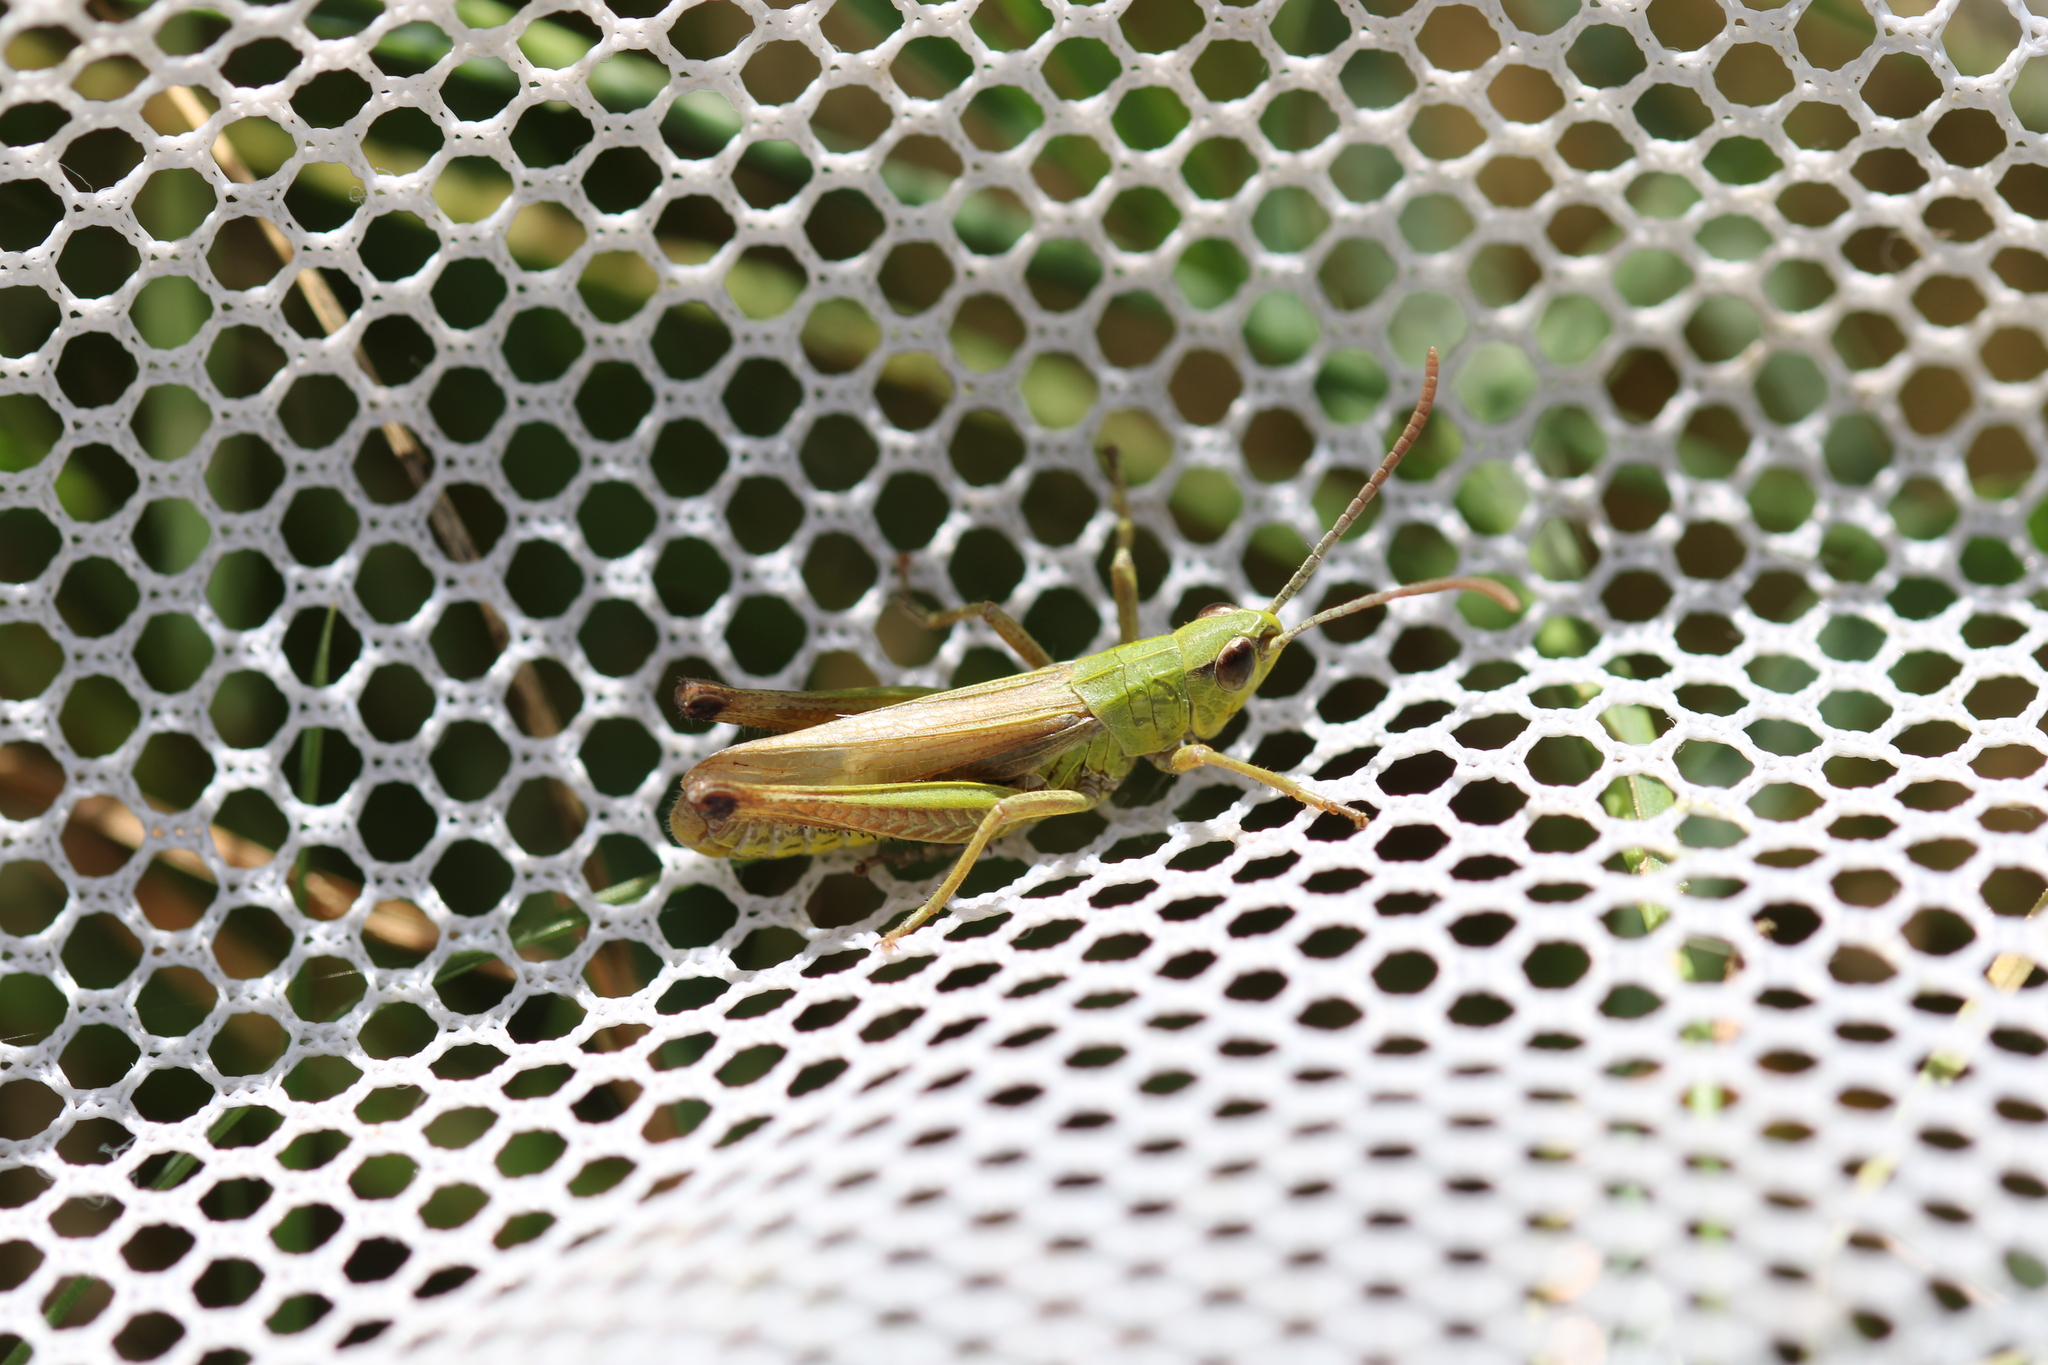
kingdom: Animalia
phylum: Arthropoda
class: Insecta
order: Orthoptera
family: Acrididae
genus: Pseudochorthippus
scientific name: Pseudochorthippus parallelus
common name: Meadow grasshopper
